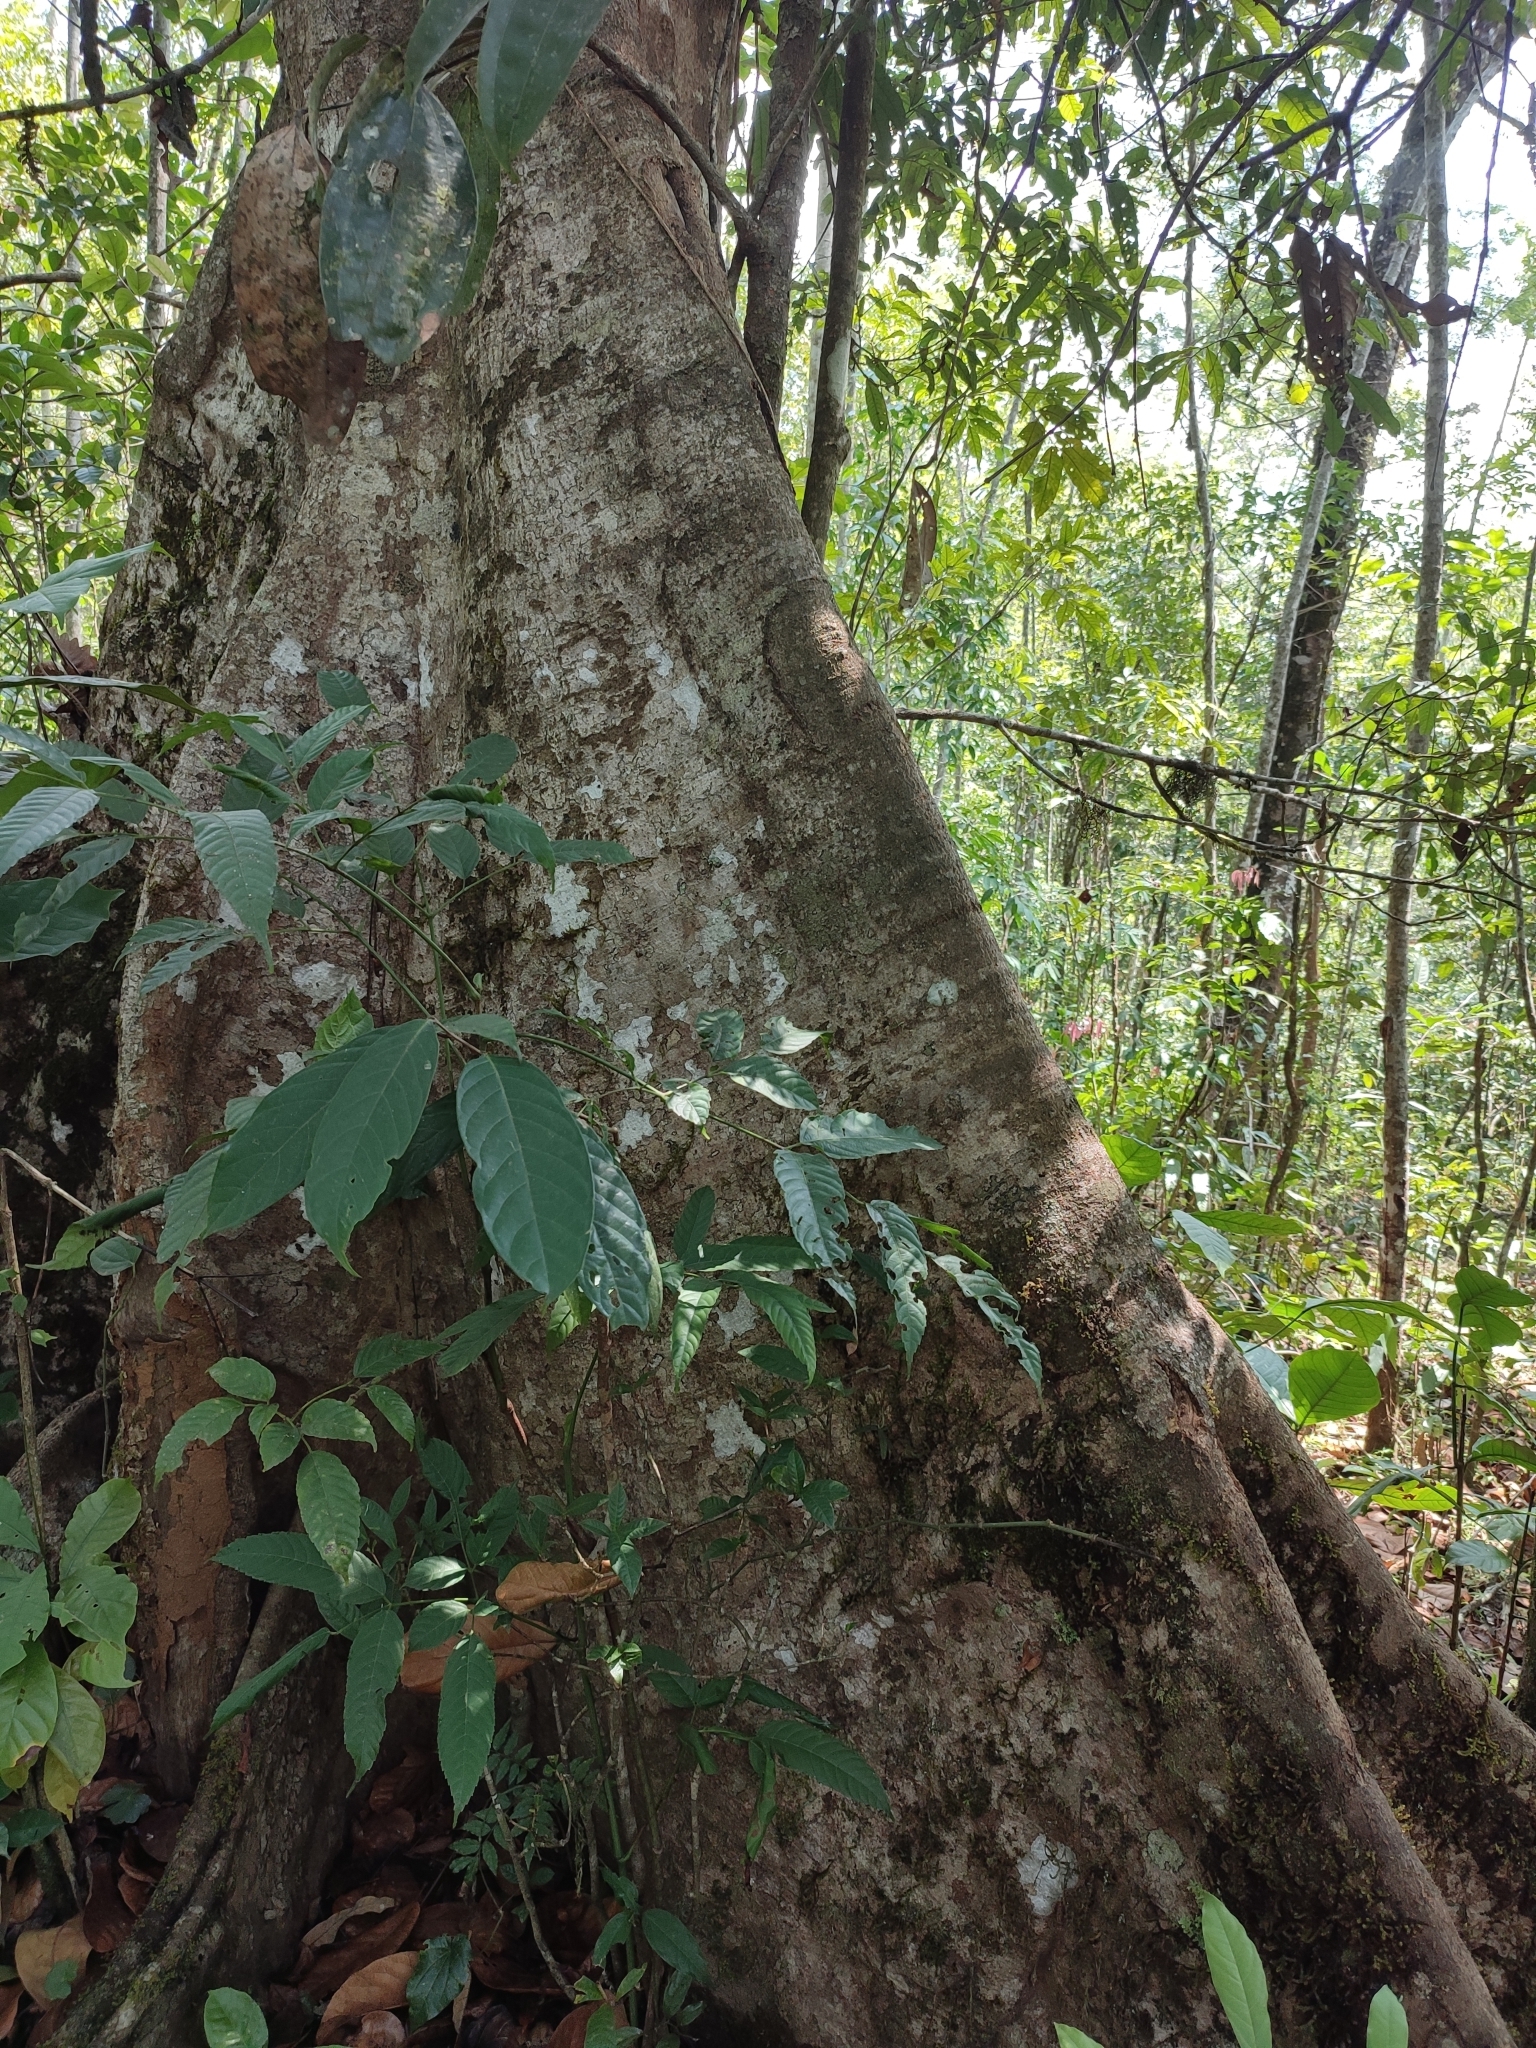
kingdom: Plantae
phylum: Tracheophyta
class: Magnoliopsida
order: Oxalidales
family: Elaeocarpaceae
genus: Elaeocarpus
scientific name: Elaeocarpus tuberculatus
